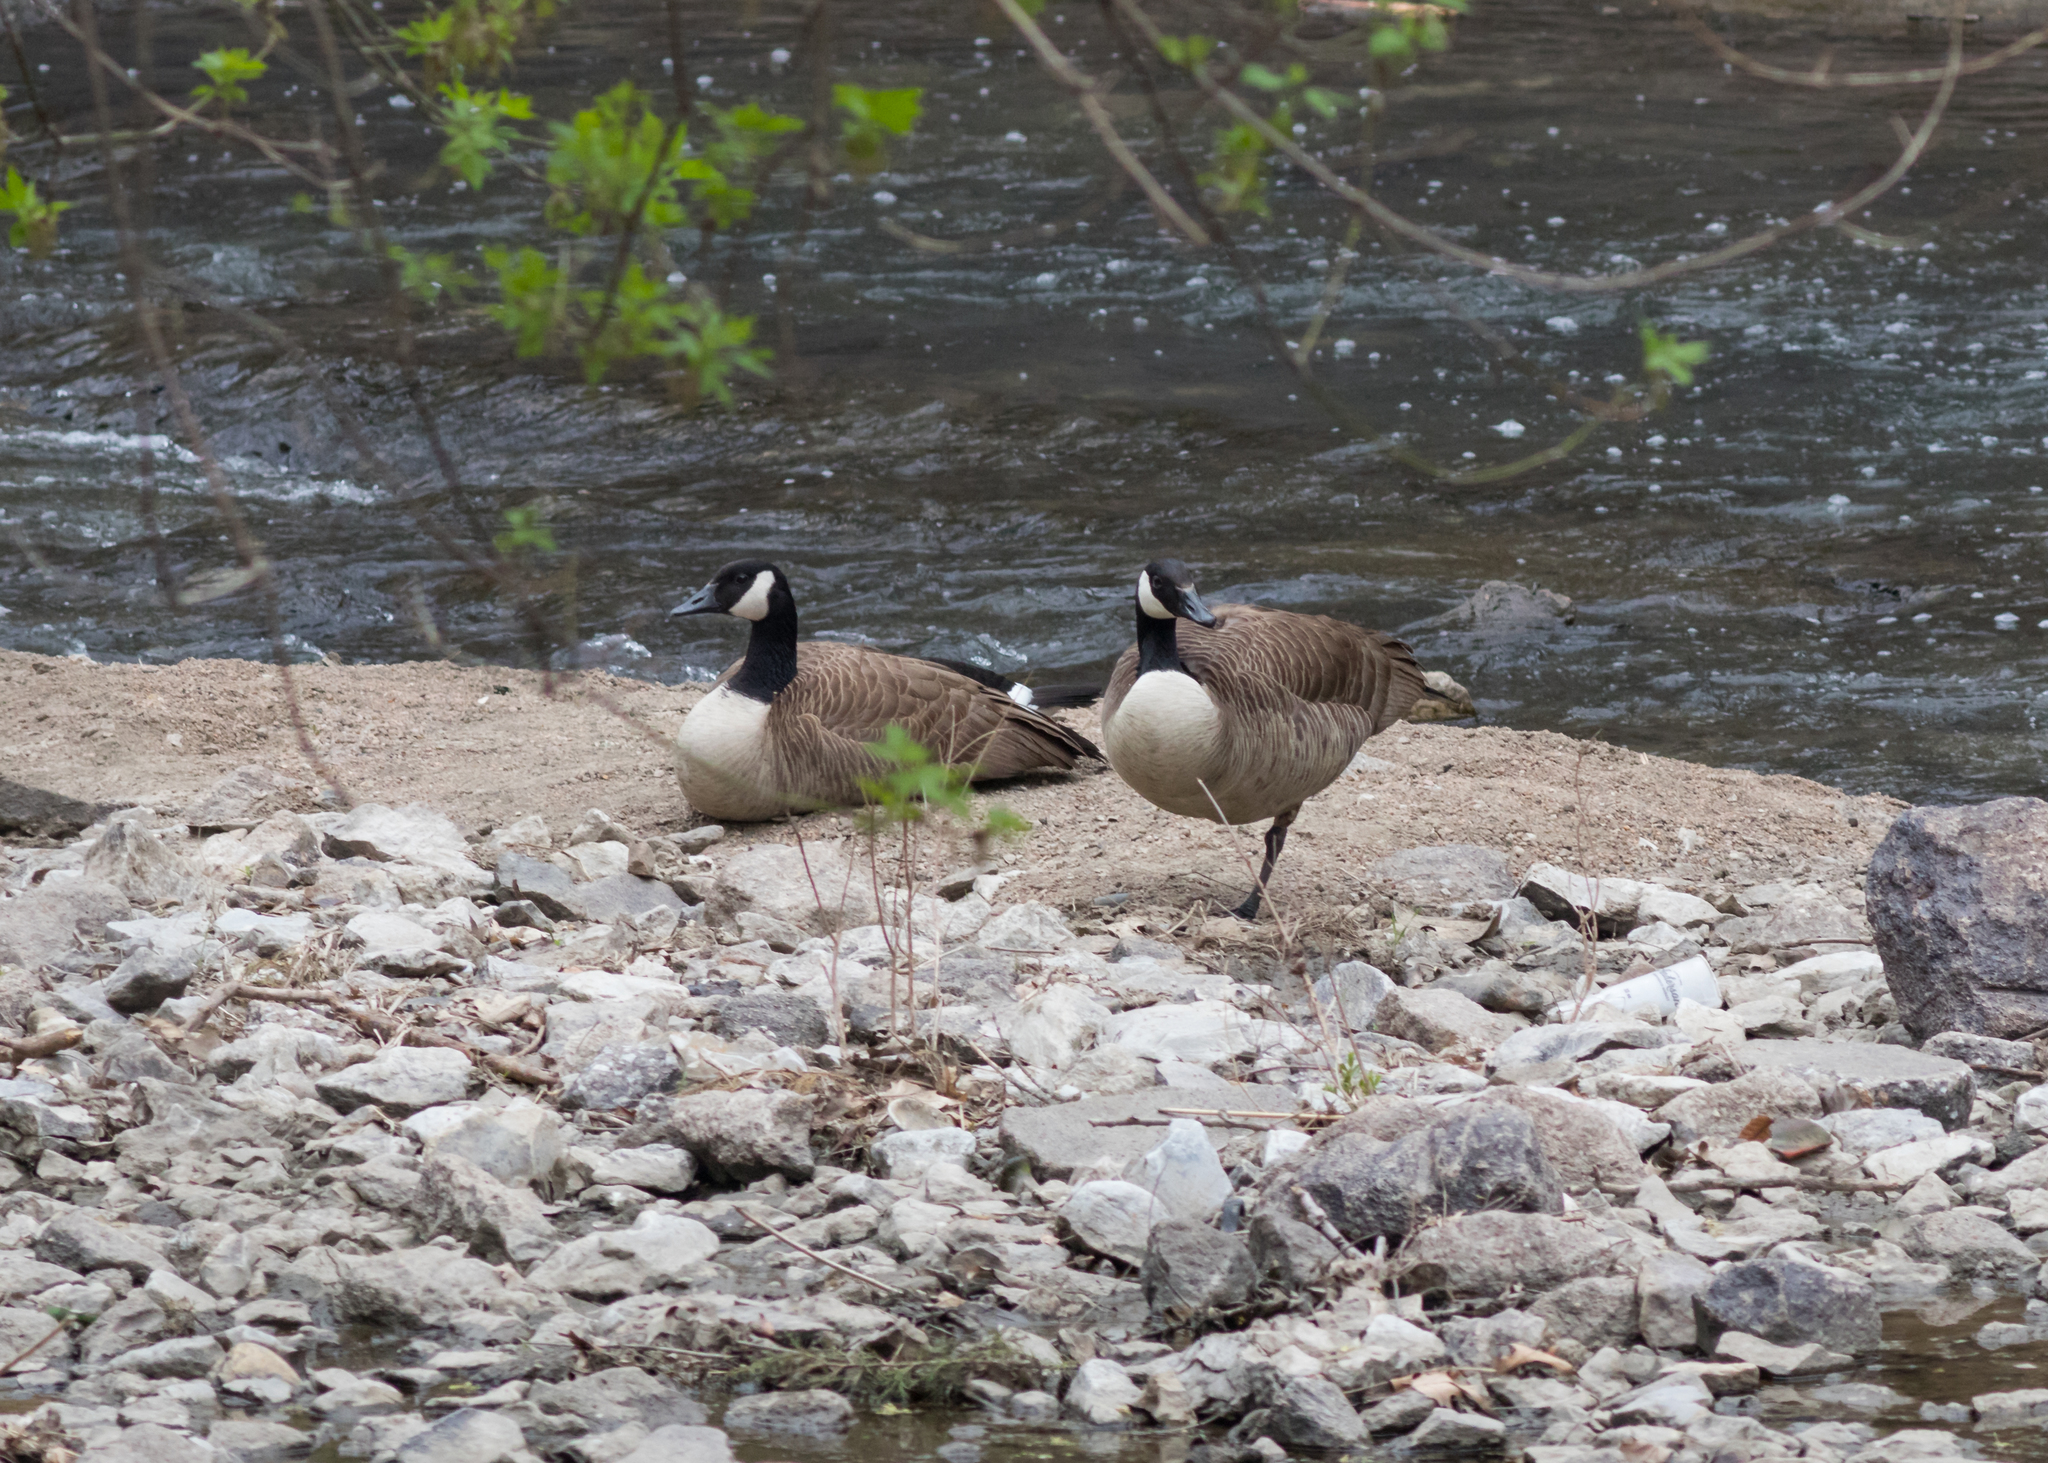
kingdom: Animalia
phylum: Chordata
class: Aves
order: Anseriformes
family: Anatidae
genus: Branta
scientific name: Branta canadensis
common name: Canada goose
